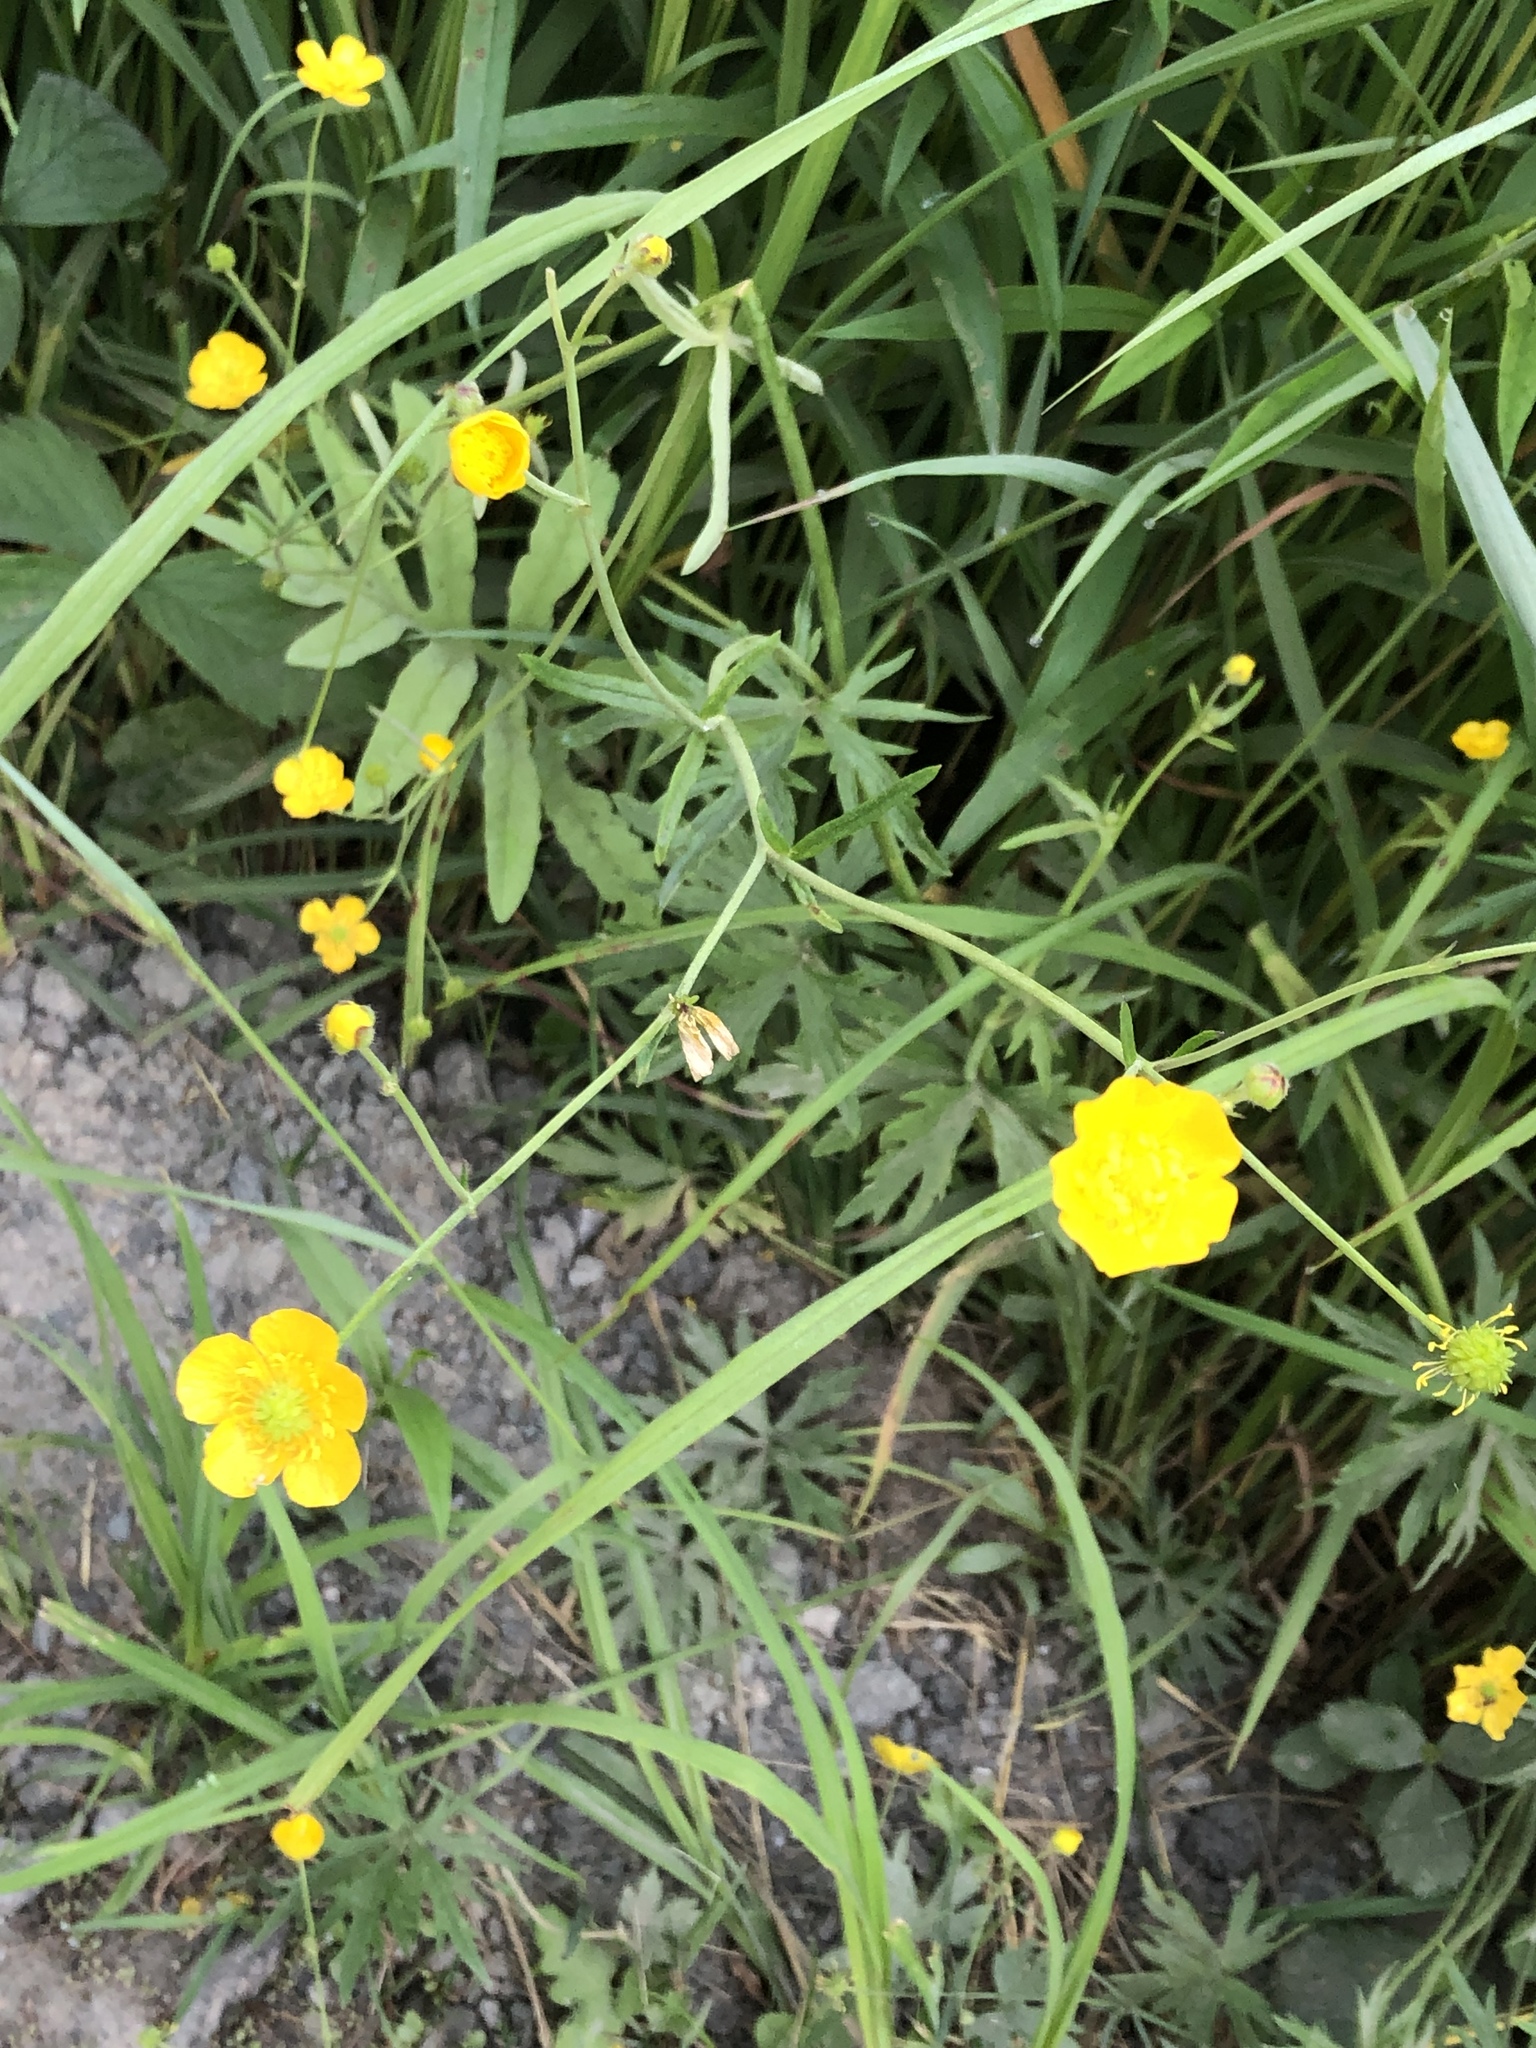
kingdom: Plantae
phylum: Tracheophyta
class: Magnoliopsida
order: Ranunculales
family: Ranunculaceae
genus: Ranunculus
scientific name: Ranunculus acris
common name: Meadow buttercup
